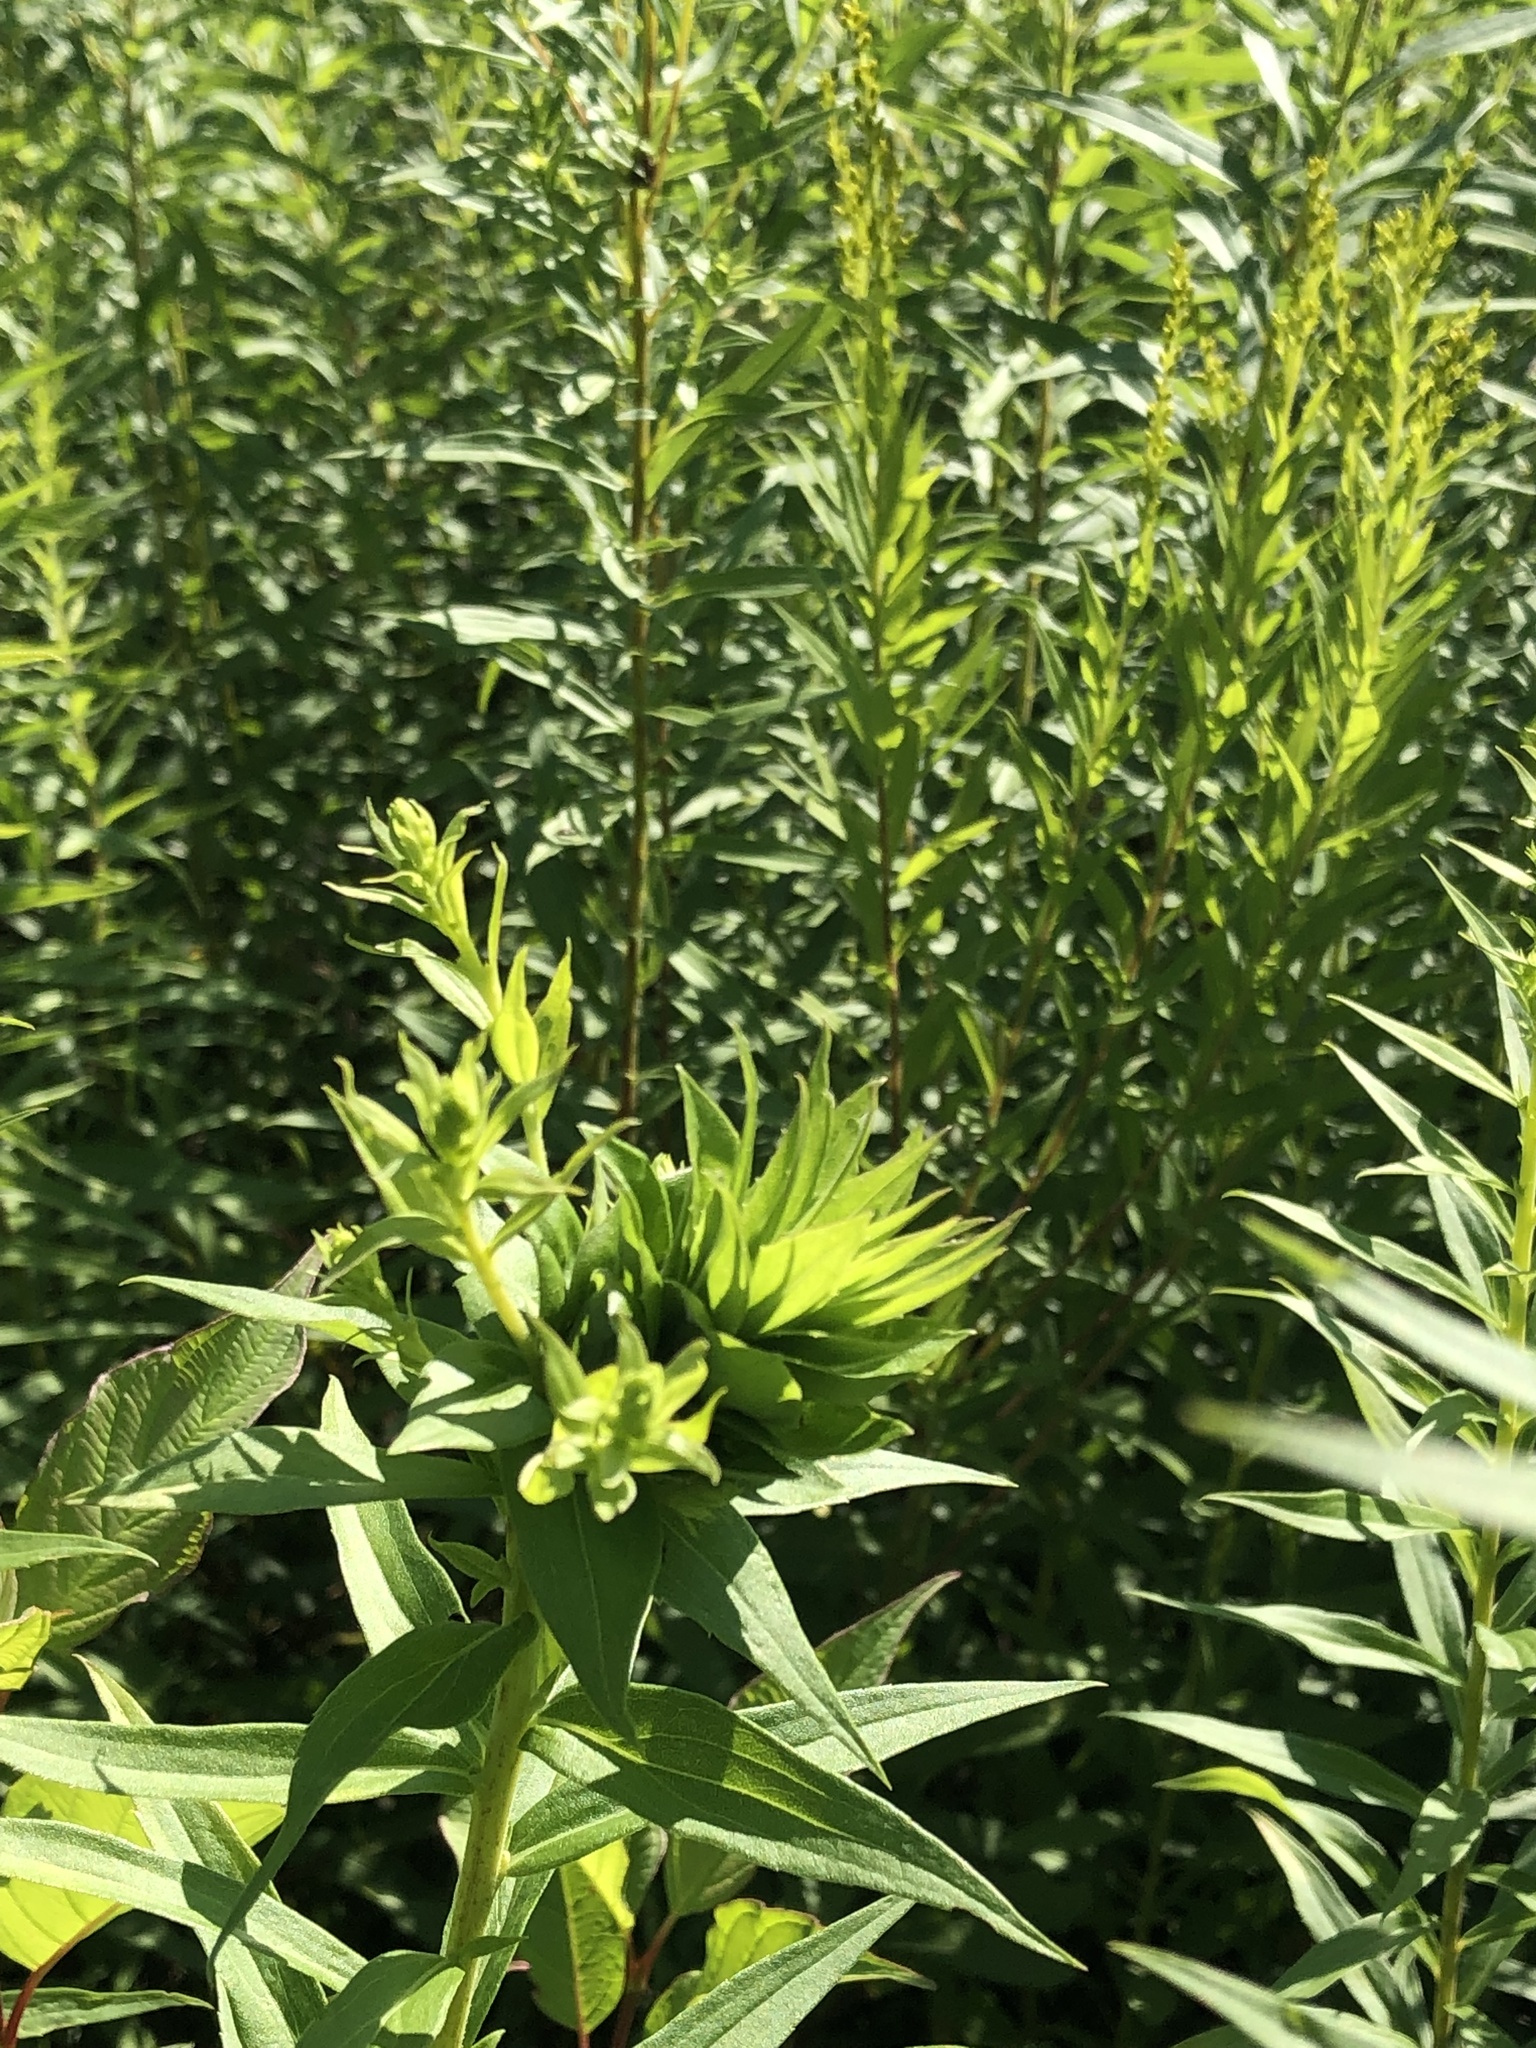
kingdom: Animalia
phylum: Arthropoda
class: Insecta
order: Diptera
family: Cecidomyiidae
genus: Rhopalomyia
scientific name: Rhopalomyia solidaginis
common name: Goldenrod bunch gall midge
